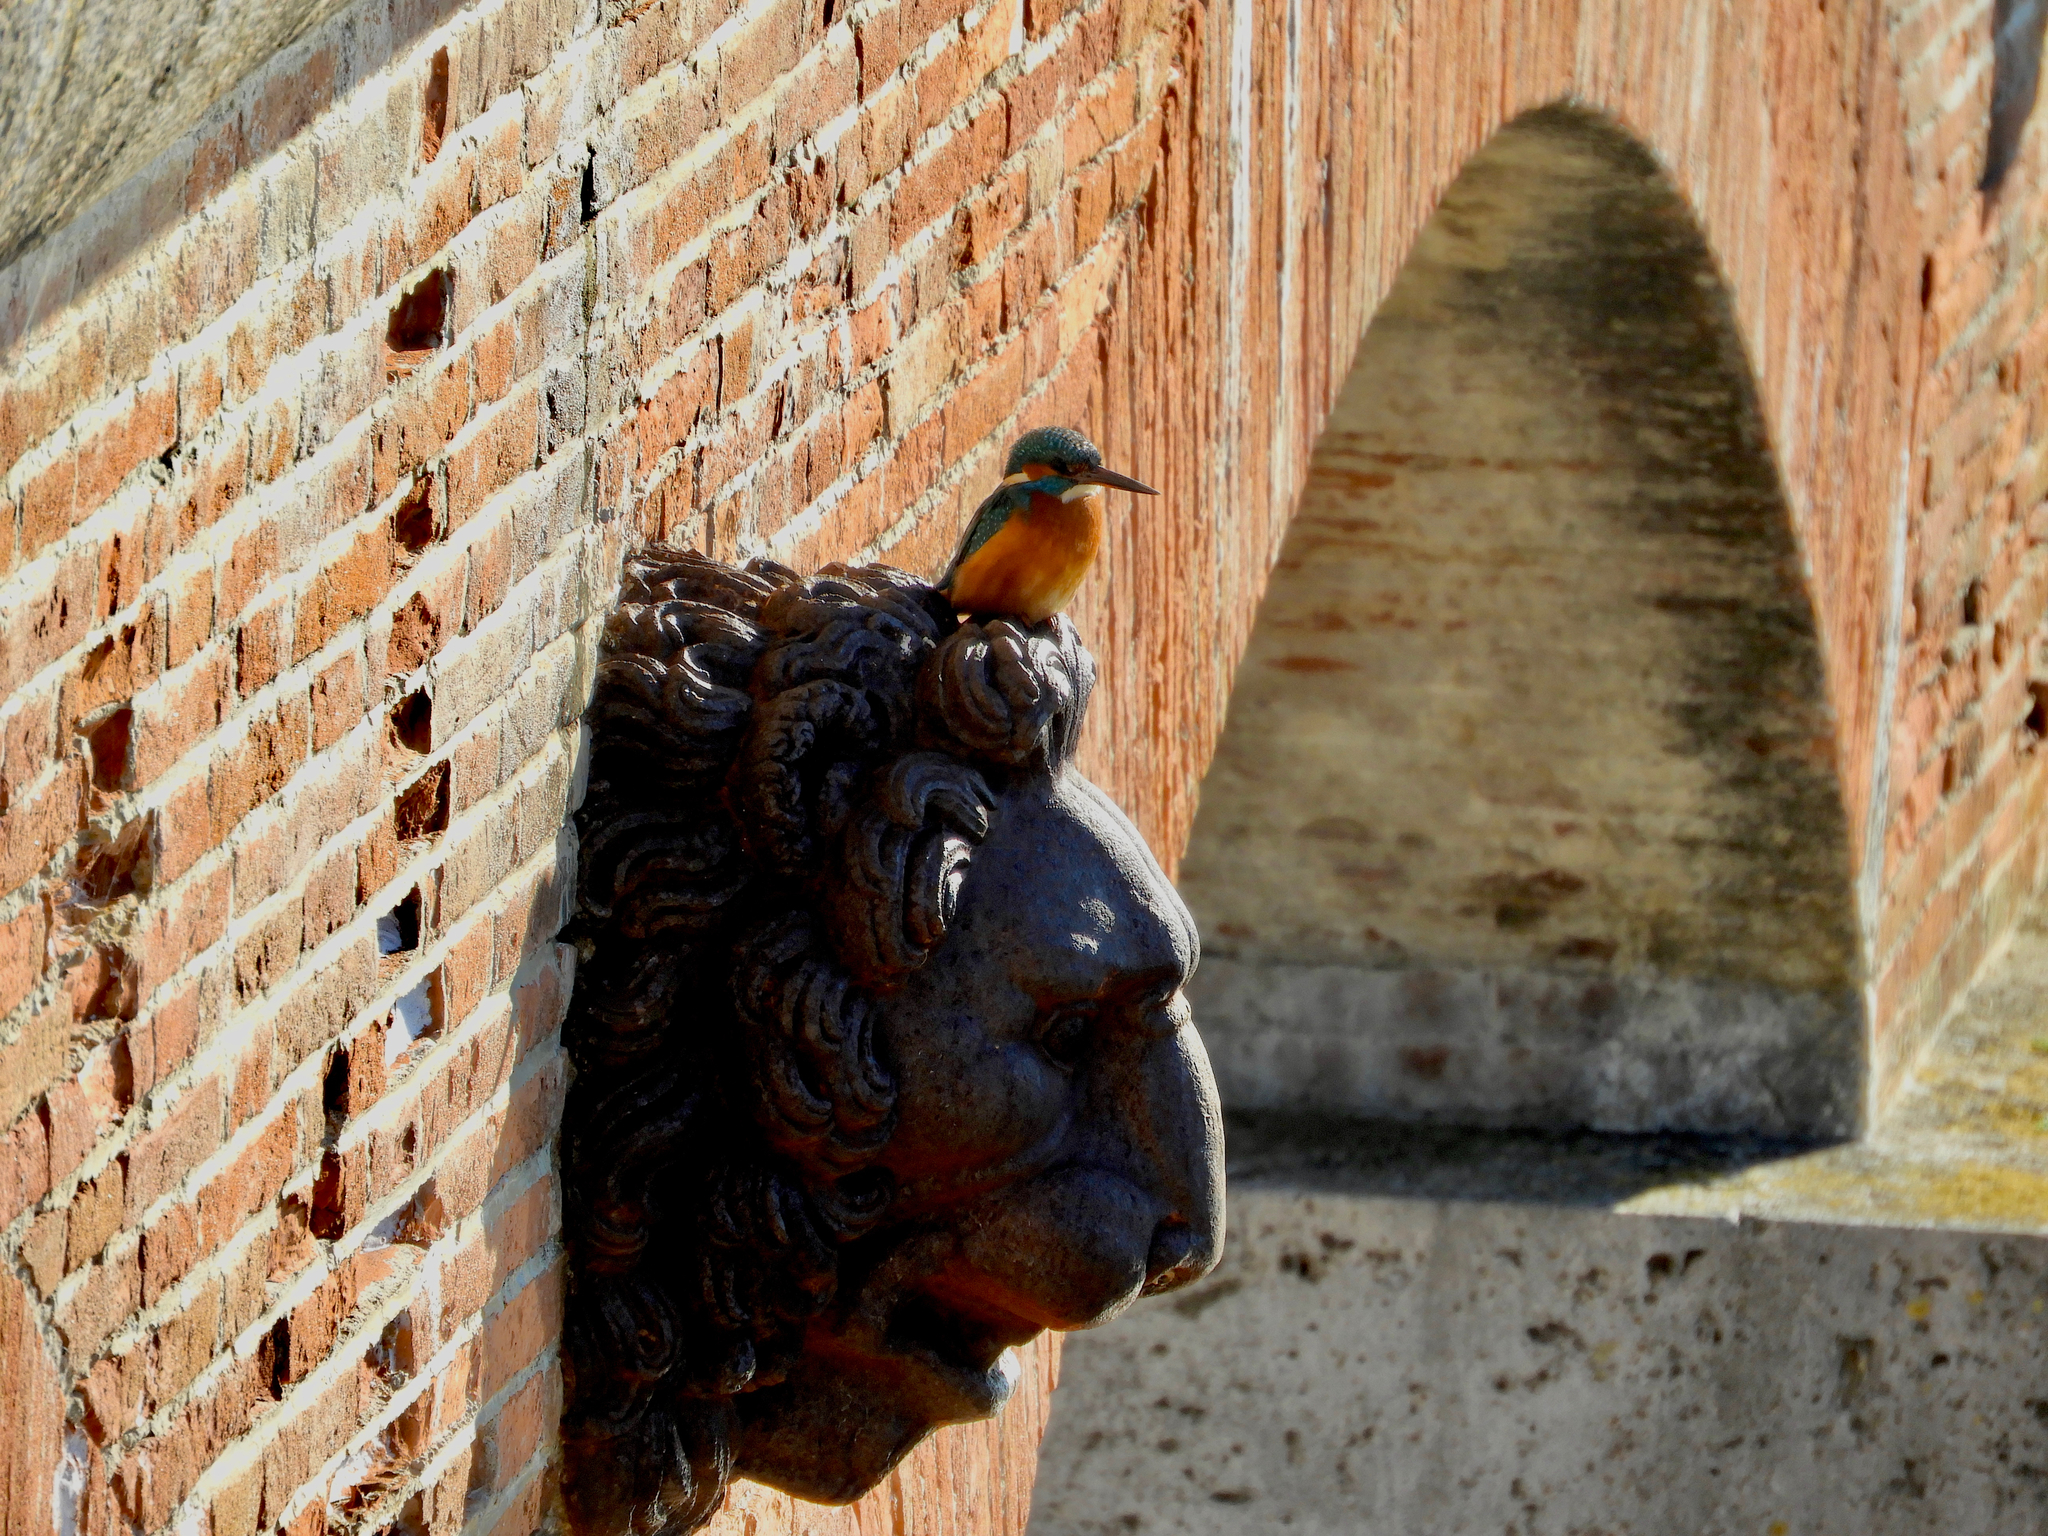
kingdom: Animalia
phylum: Chordata
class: Aves
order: Coraciiformes
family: Alcedinidae
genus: Alcedo
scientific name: Alcedo atthis
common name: Common kingfisher
